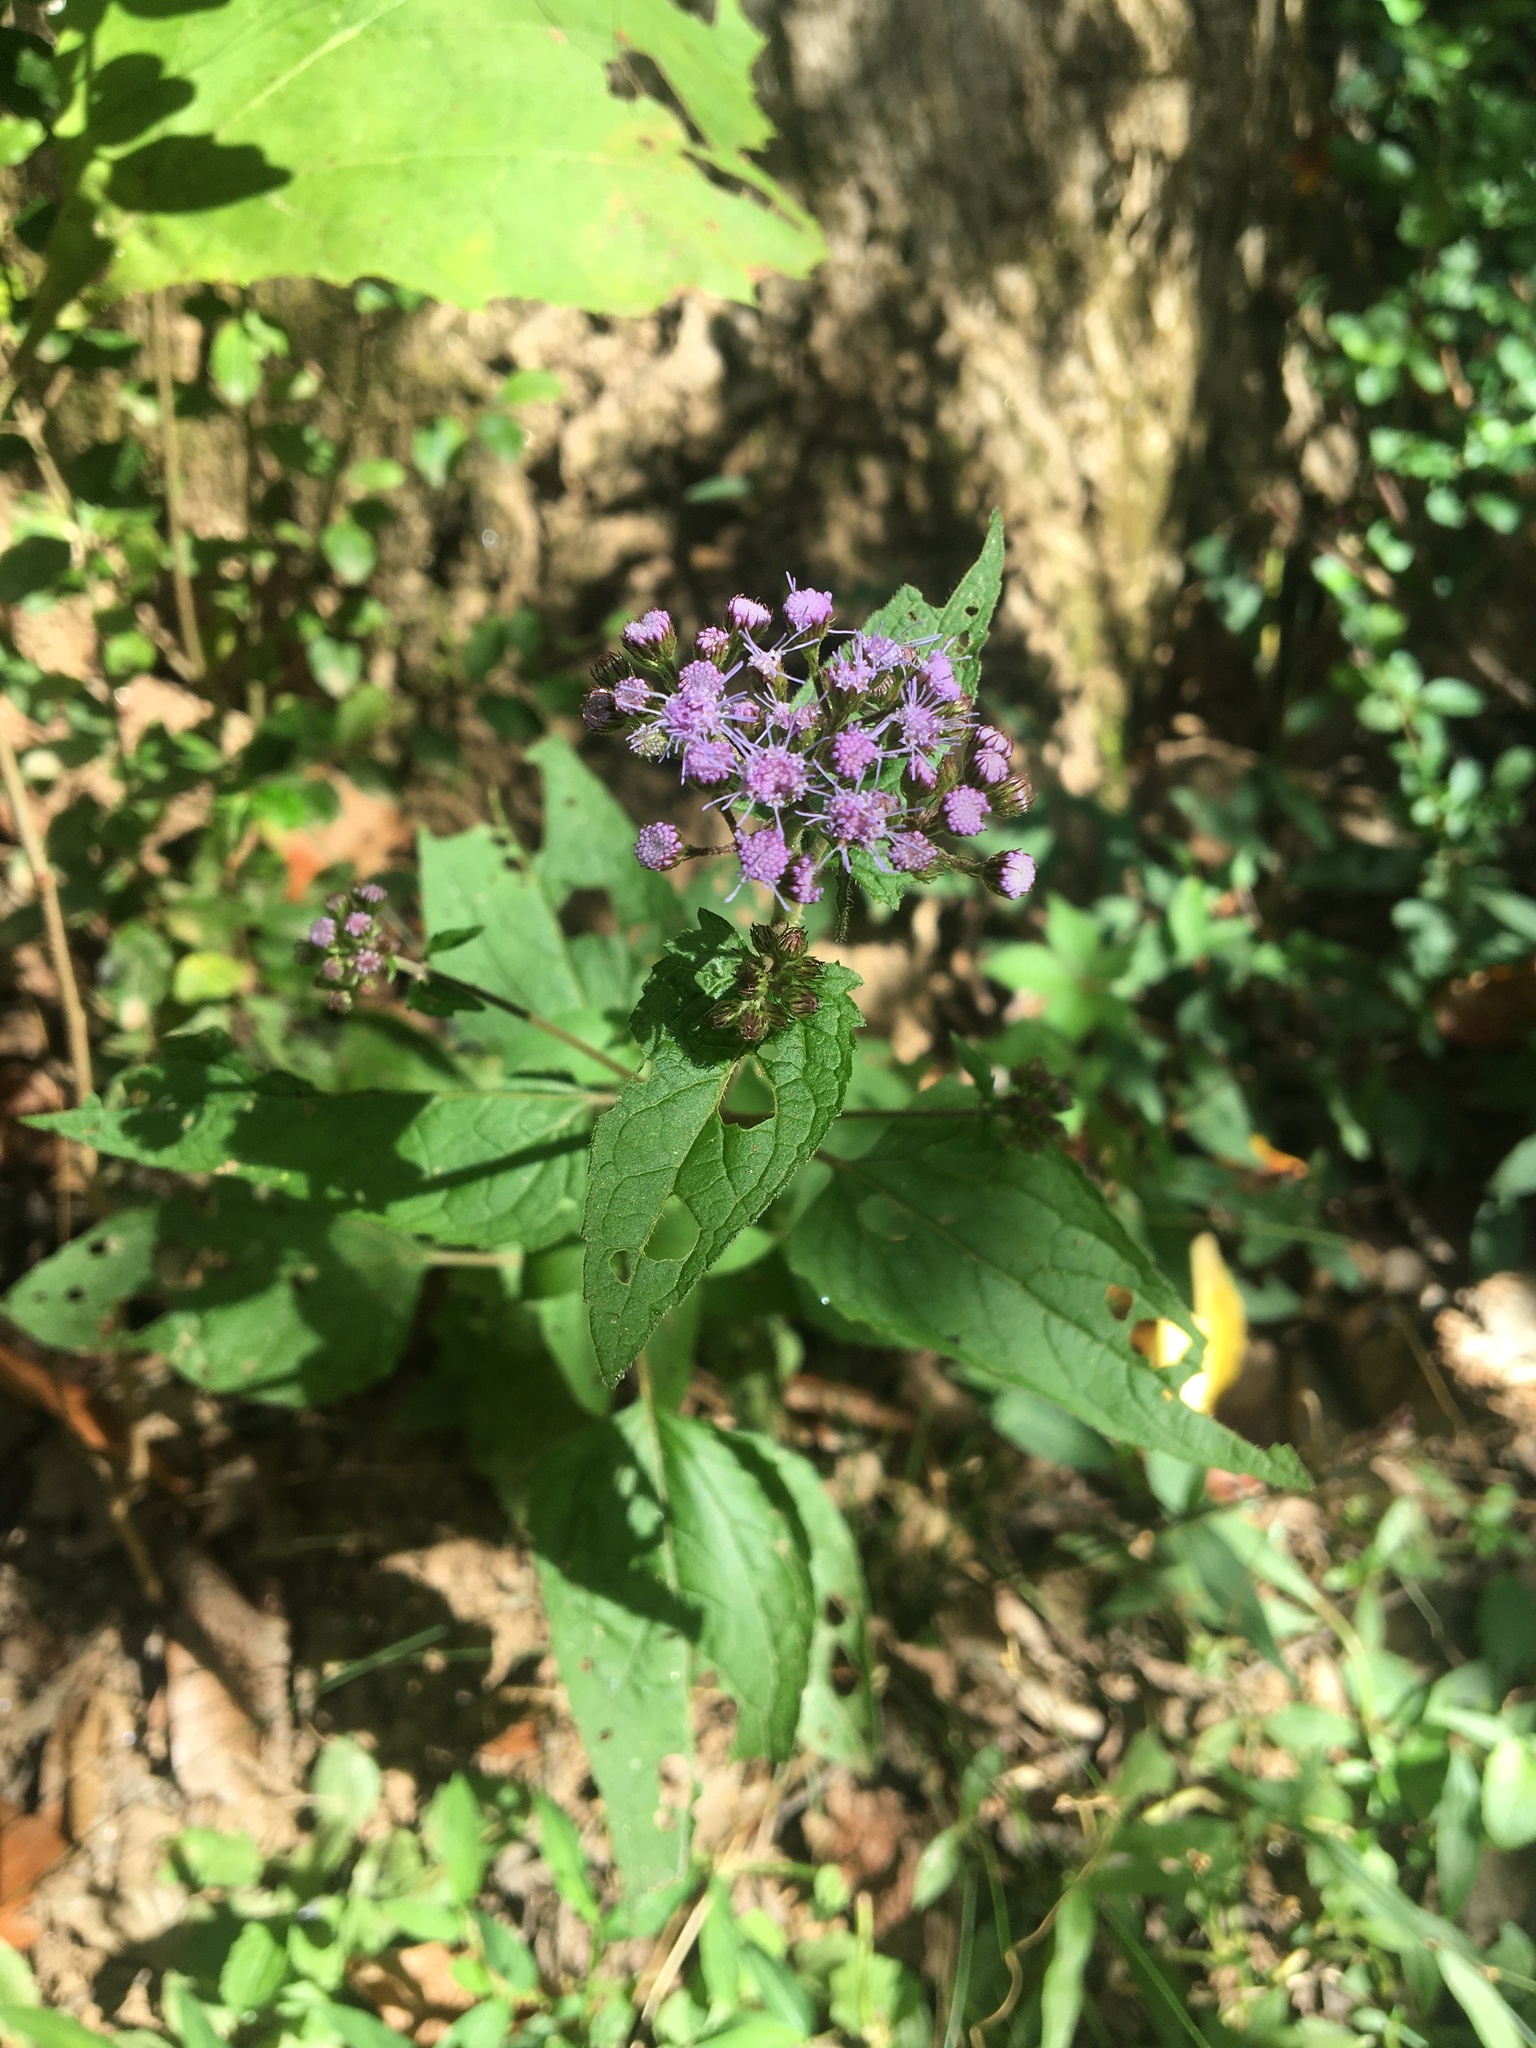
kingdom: Plantae
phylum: Tracheophyta
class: Magnoliopsida
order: Asterales
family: Asteraceae
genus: Conoclinium
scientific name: Conoclinium coelestinum
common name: Blue mistflower
